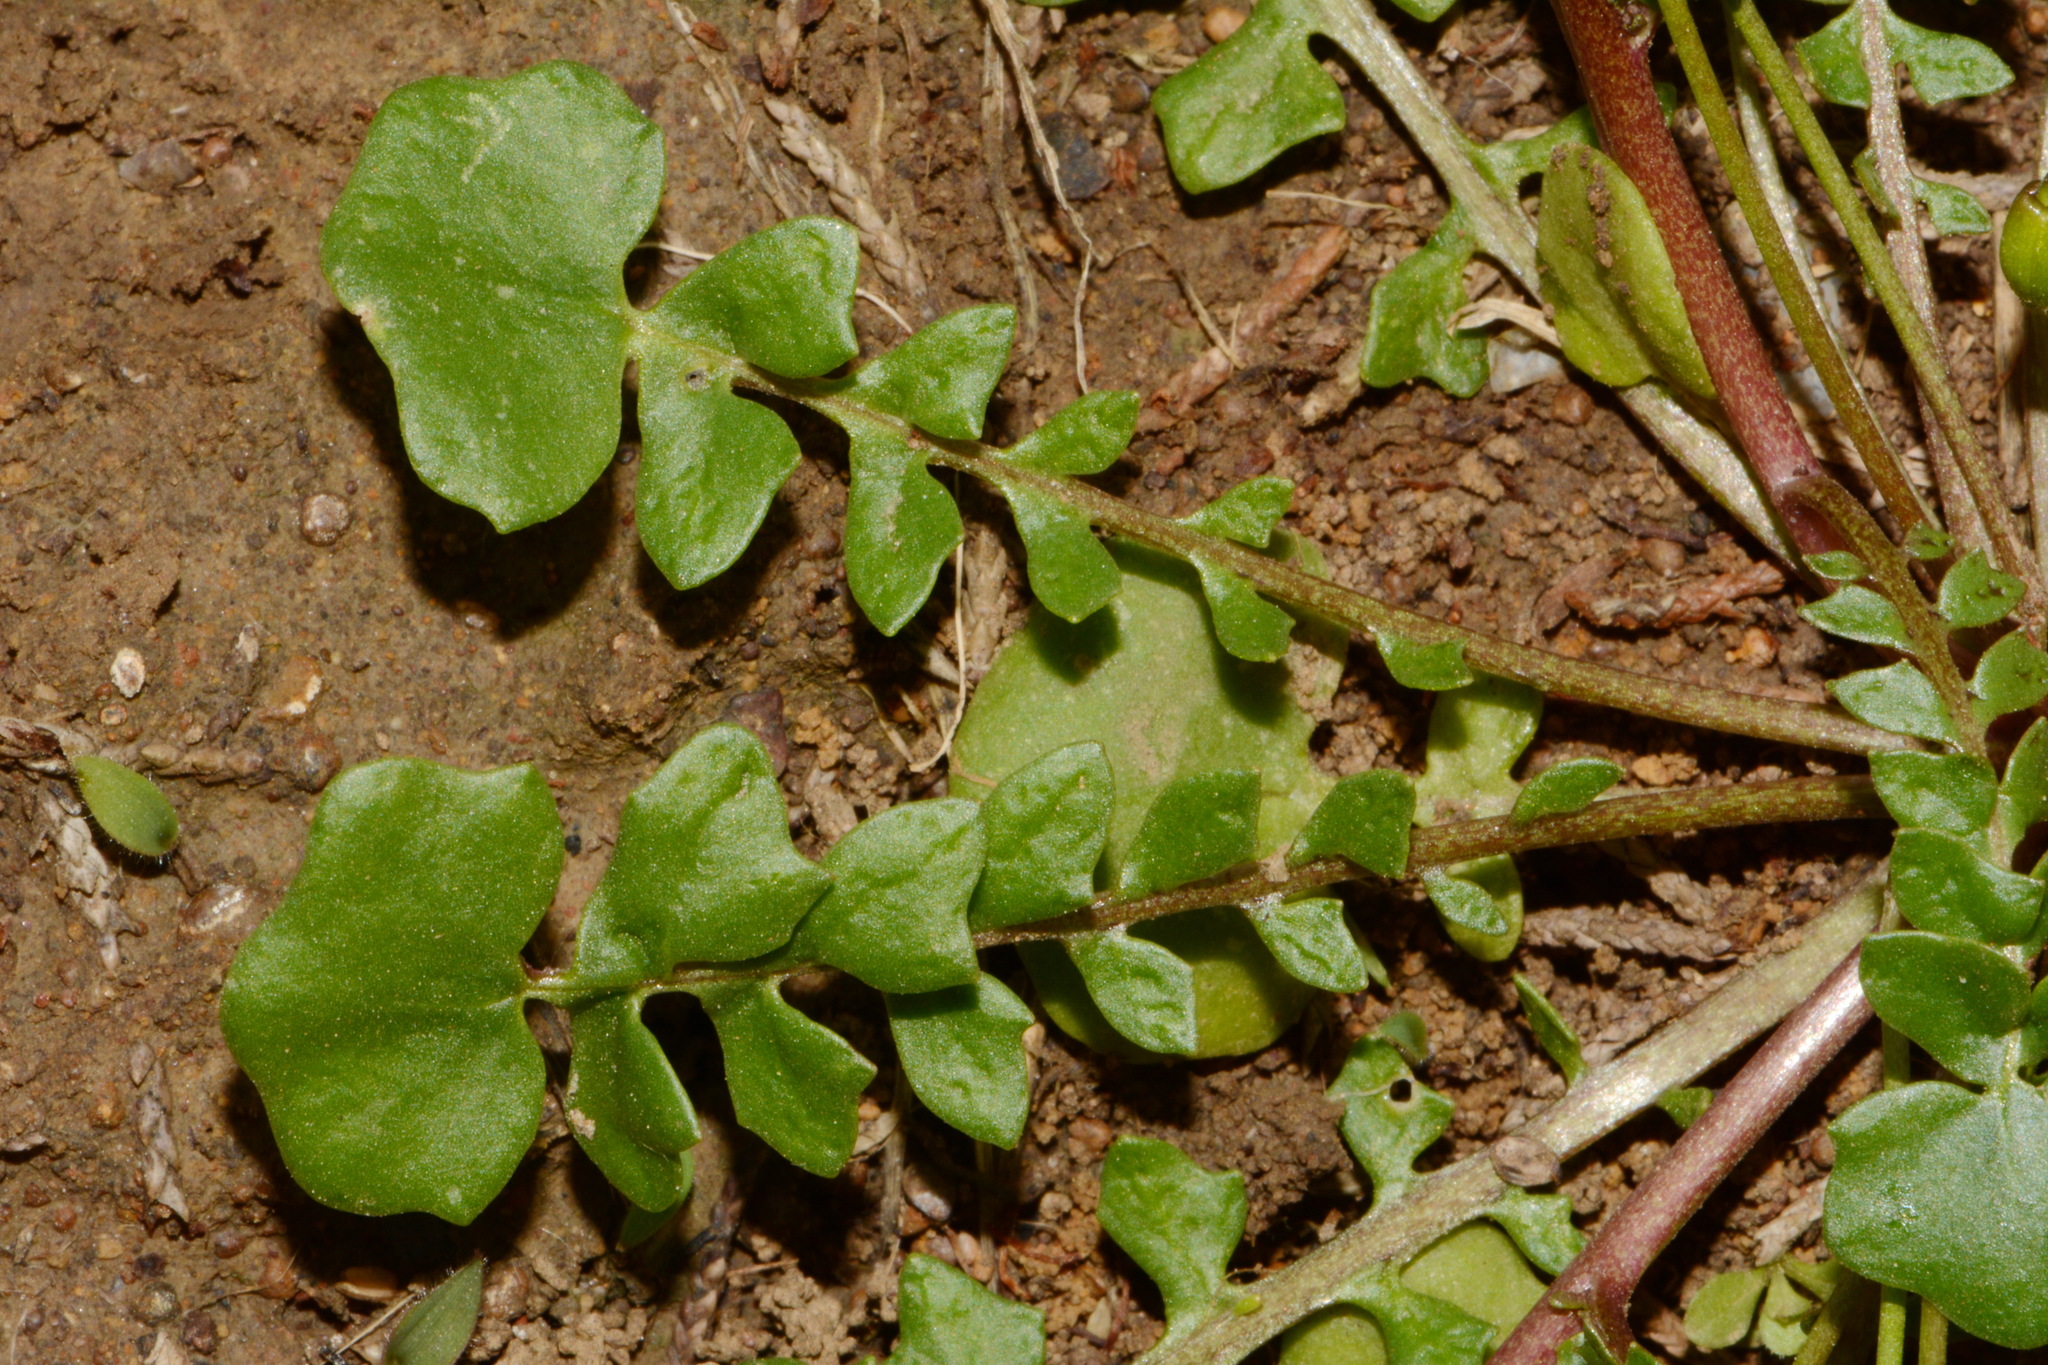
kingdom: Plantae
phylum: Tracheophyta
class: Magnoliopsida
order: Brassicales
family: Brassicaceae
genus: Leavenworthia
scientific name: Leavenworthia crassa
